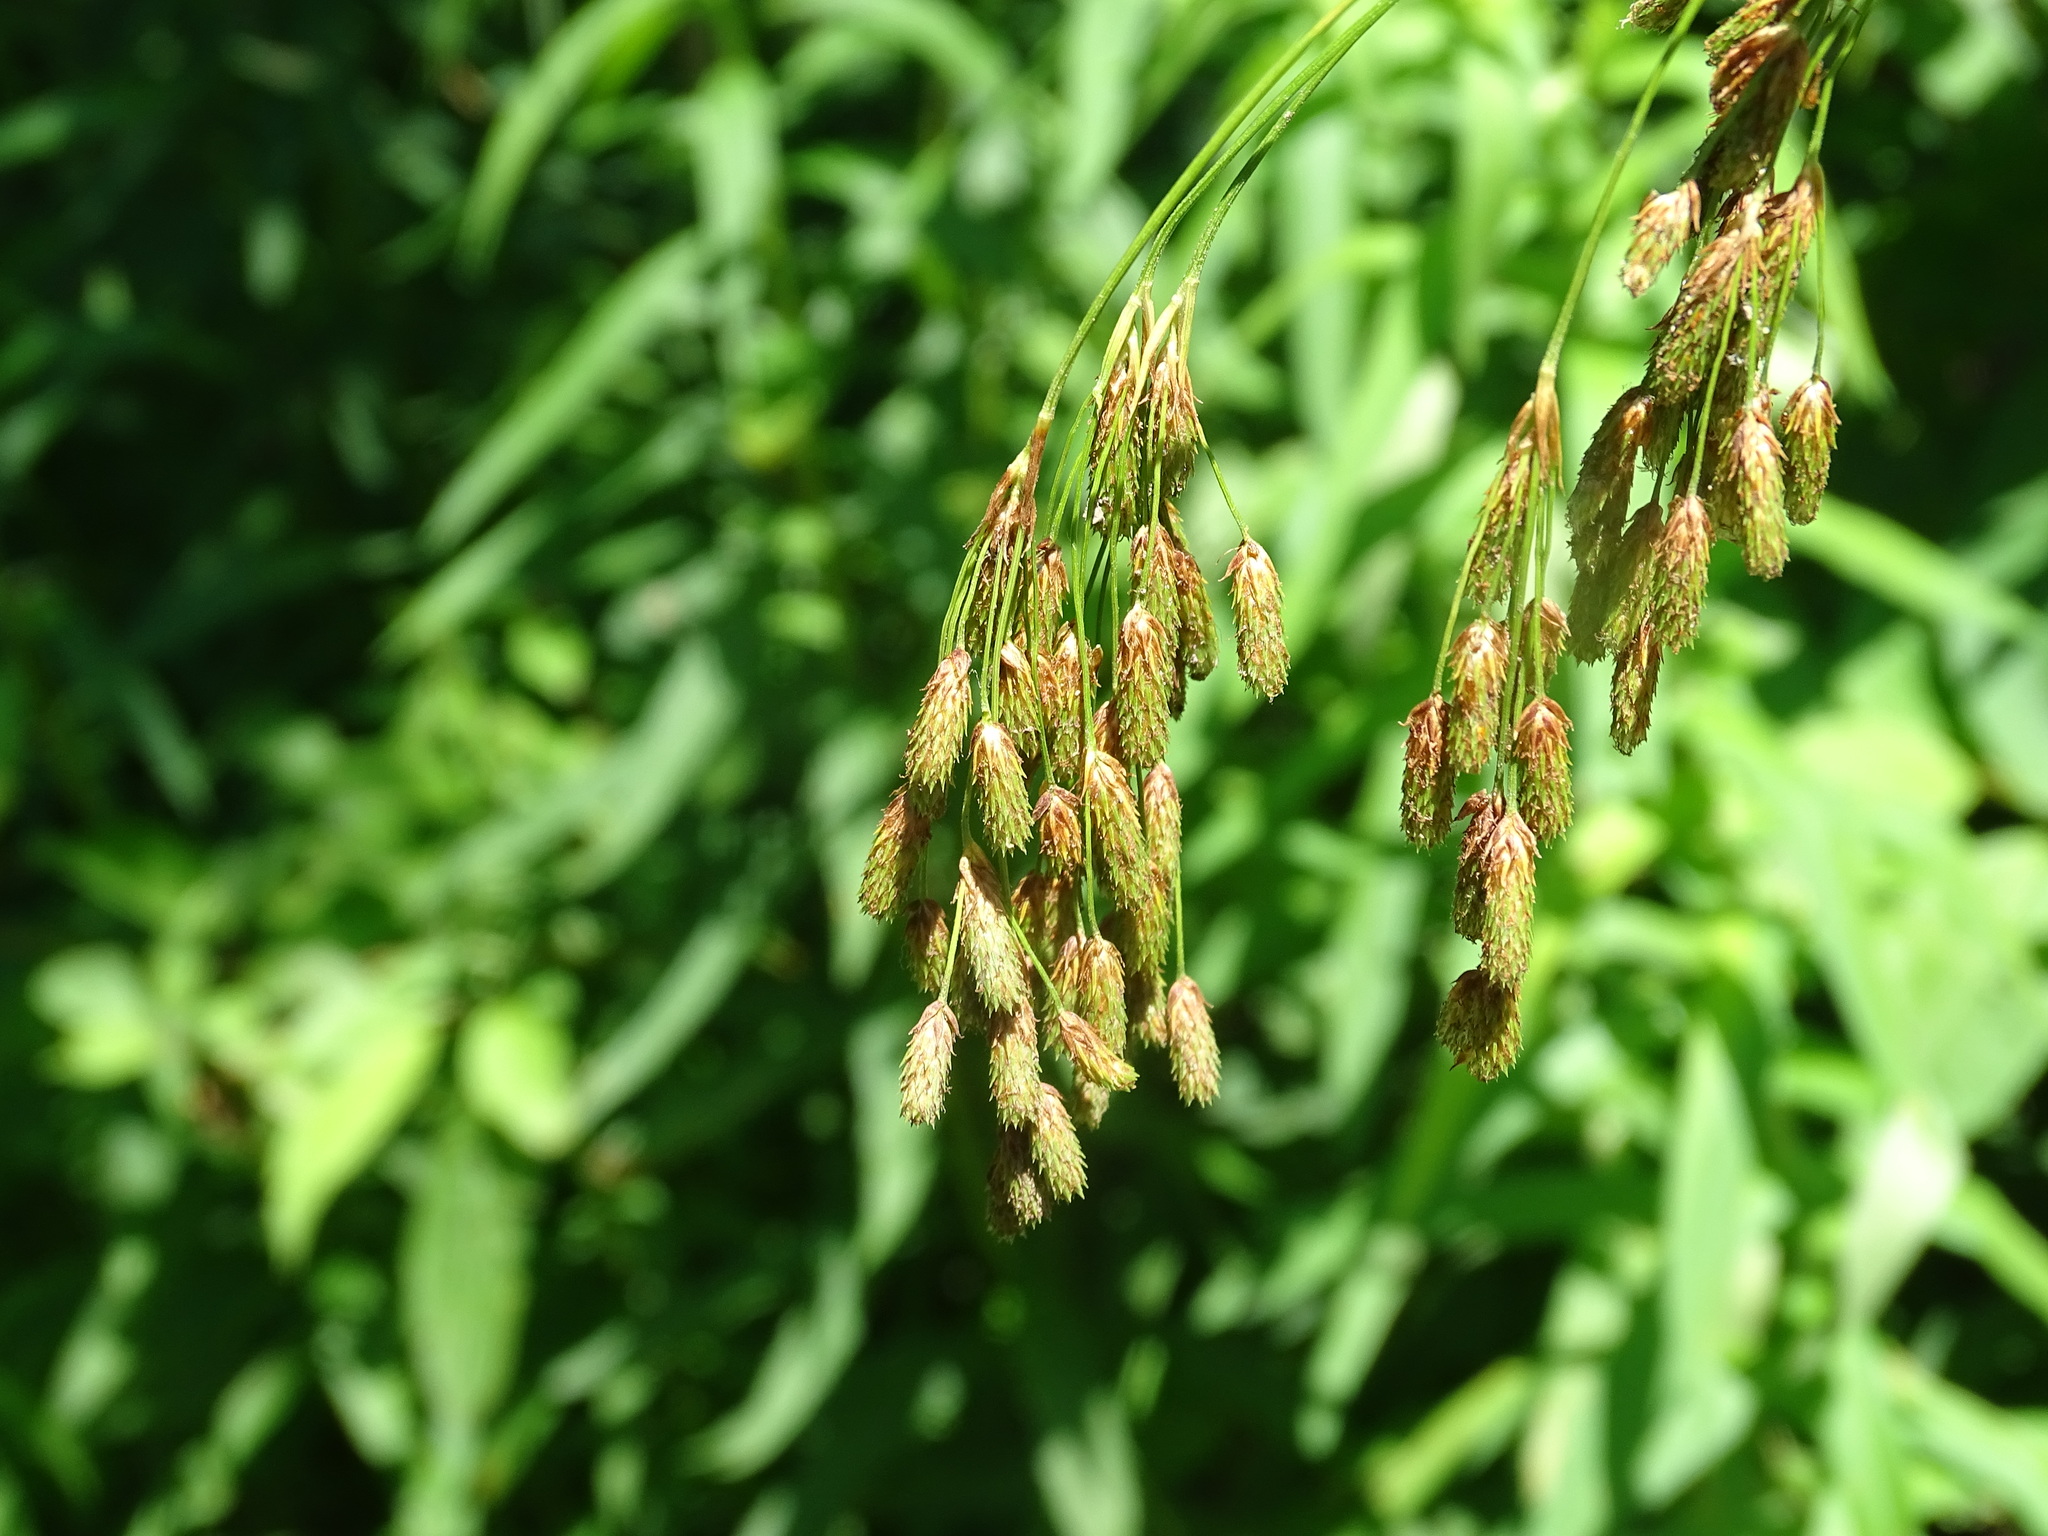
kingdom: Plantae
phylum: Tracheophyta
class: Liliopsida
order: Poales
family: Cyperaceae
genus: Scirpus
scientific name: Scirpus pendulus
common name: Nodding bulrush
